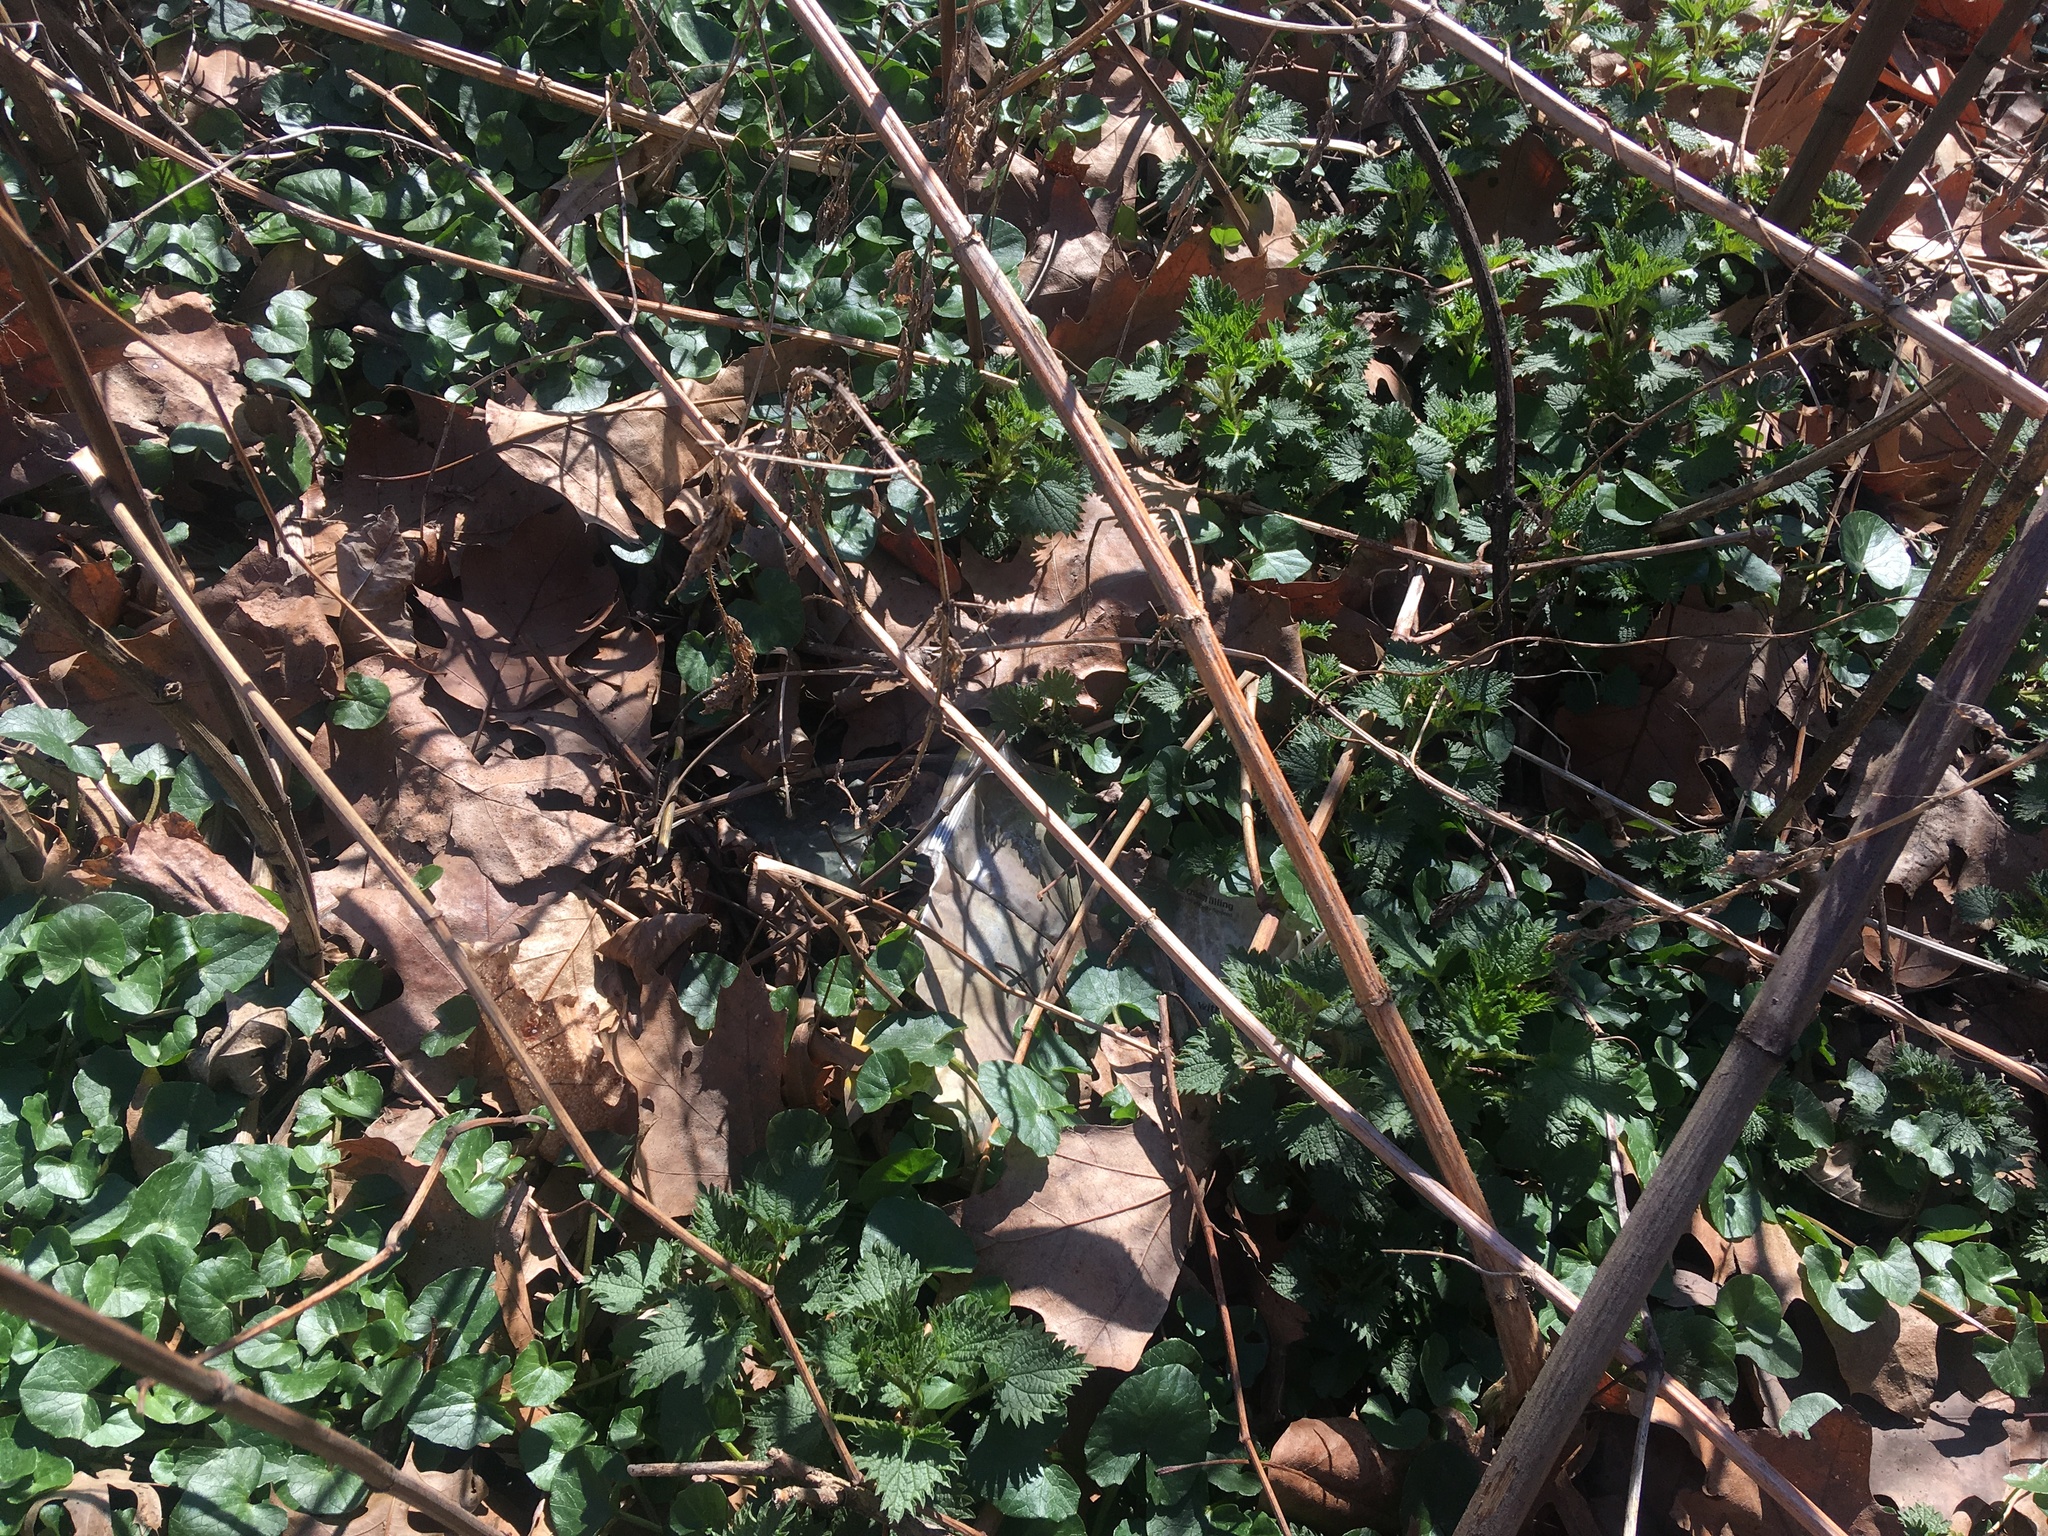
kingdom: Plantae
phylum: Tracheophyta
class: Magnoliopsida
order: Ranunculales
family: Ranunculaceae
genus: Ficaria
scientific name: Ficaria verna
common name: Lesser celandine
